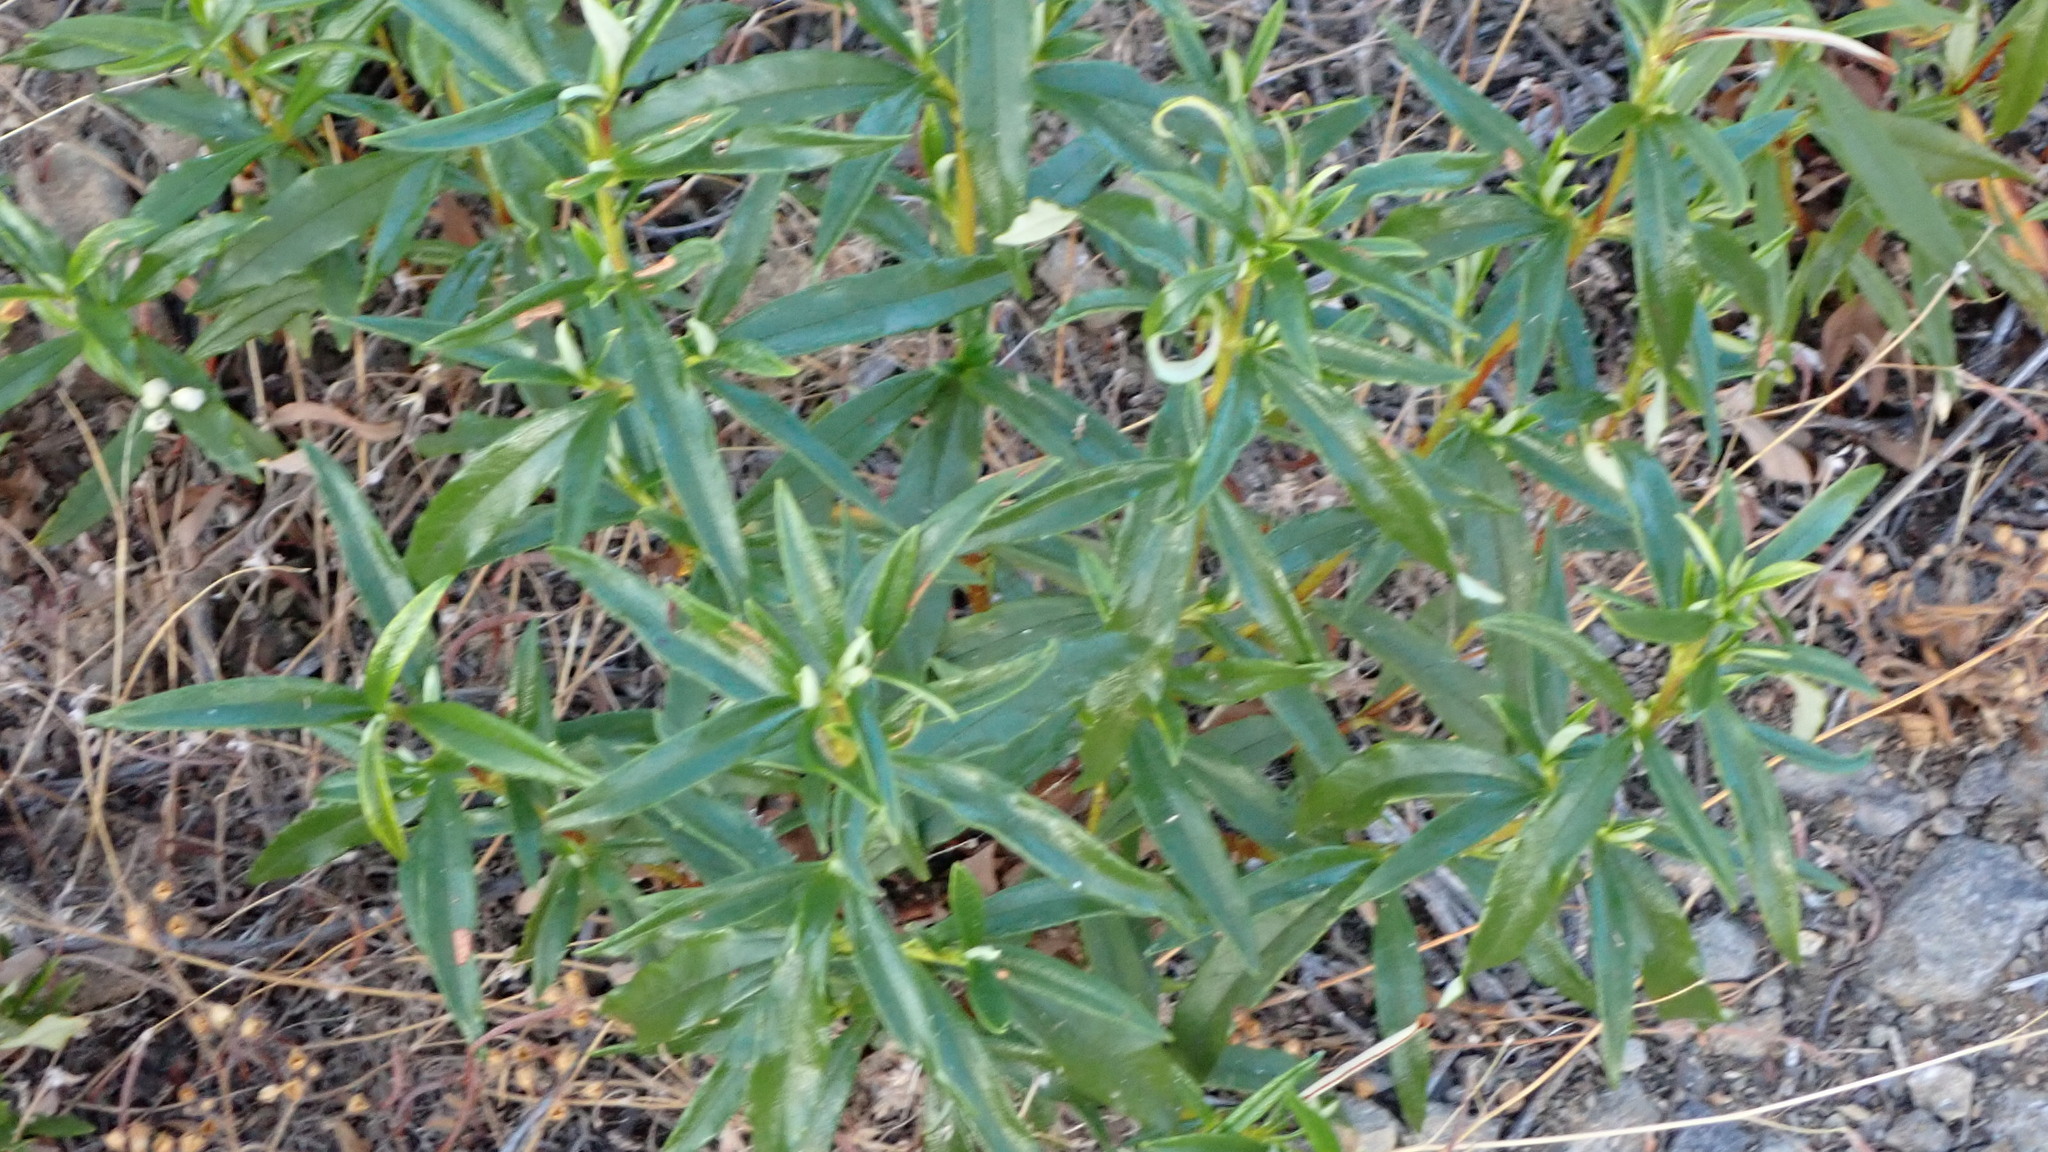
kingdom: Plantae
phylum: Tracheophyta
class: Magnoliopsida
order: Malvales
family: Cistaceae
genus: Cistus
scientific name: Cistus ladanifer
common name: Common gum cistus
